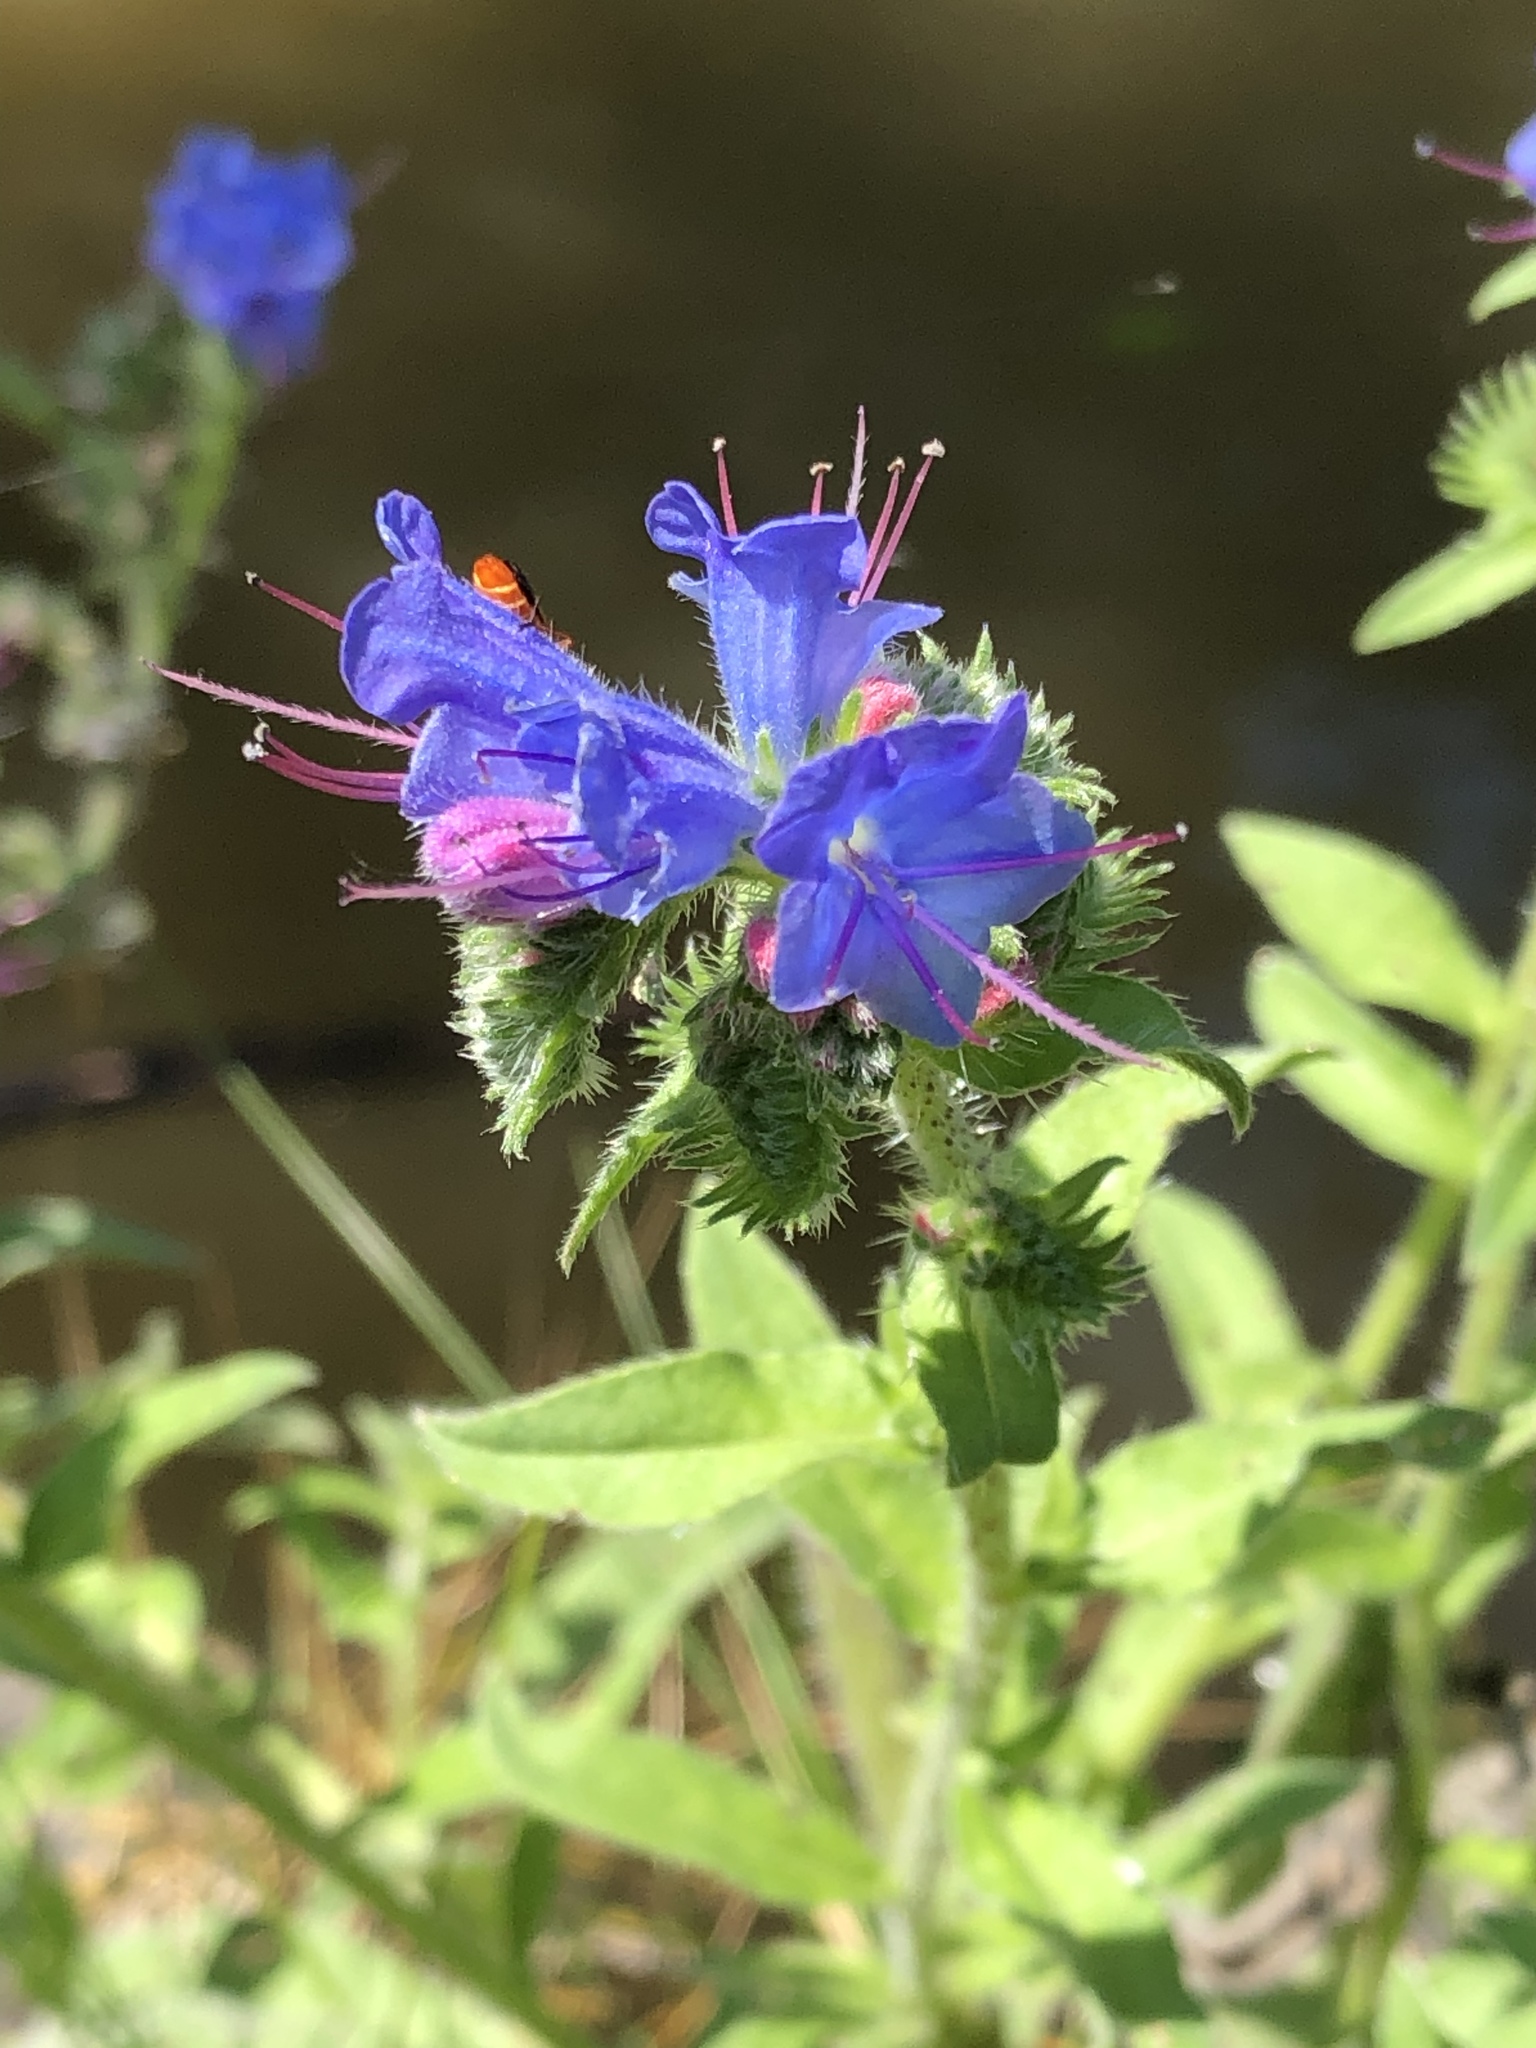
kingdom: Plantae
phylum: Tracheophyta
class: Magnoliopsida
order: Boraginales
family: Boraginaceae
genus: Echium
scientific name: Echium vulgare
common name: Common viper's bugloss
